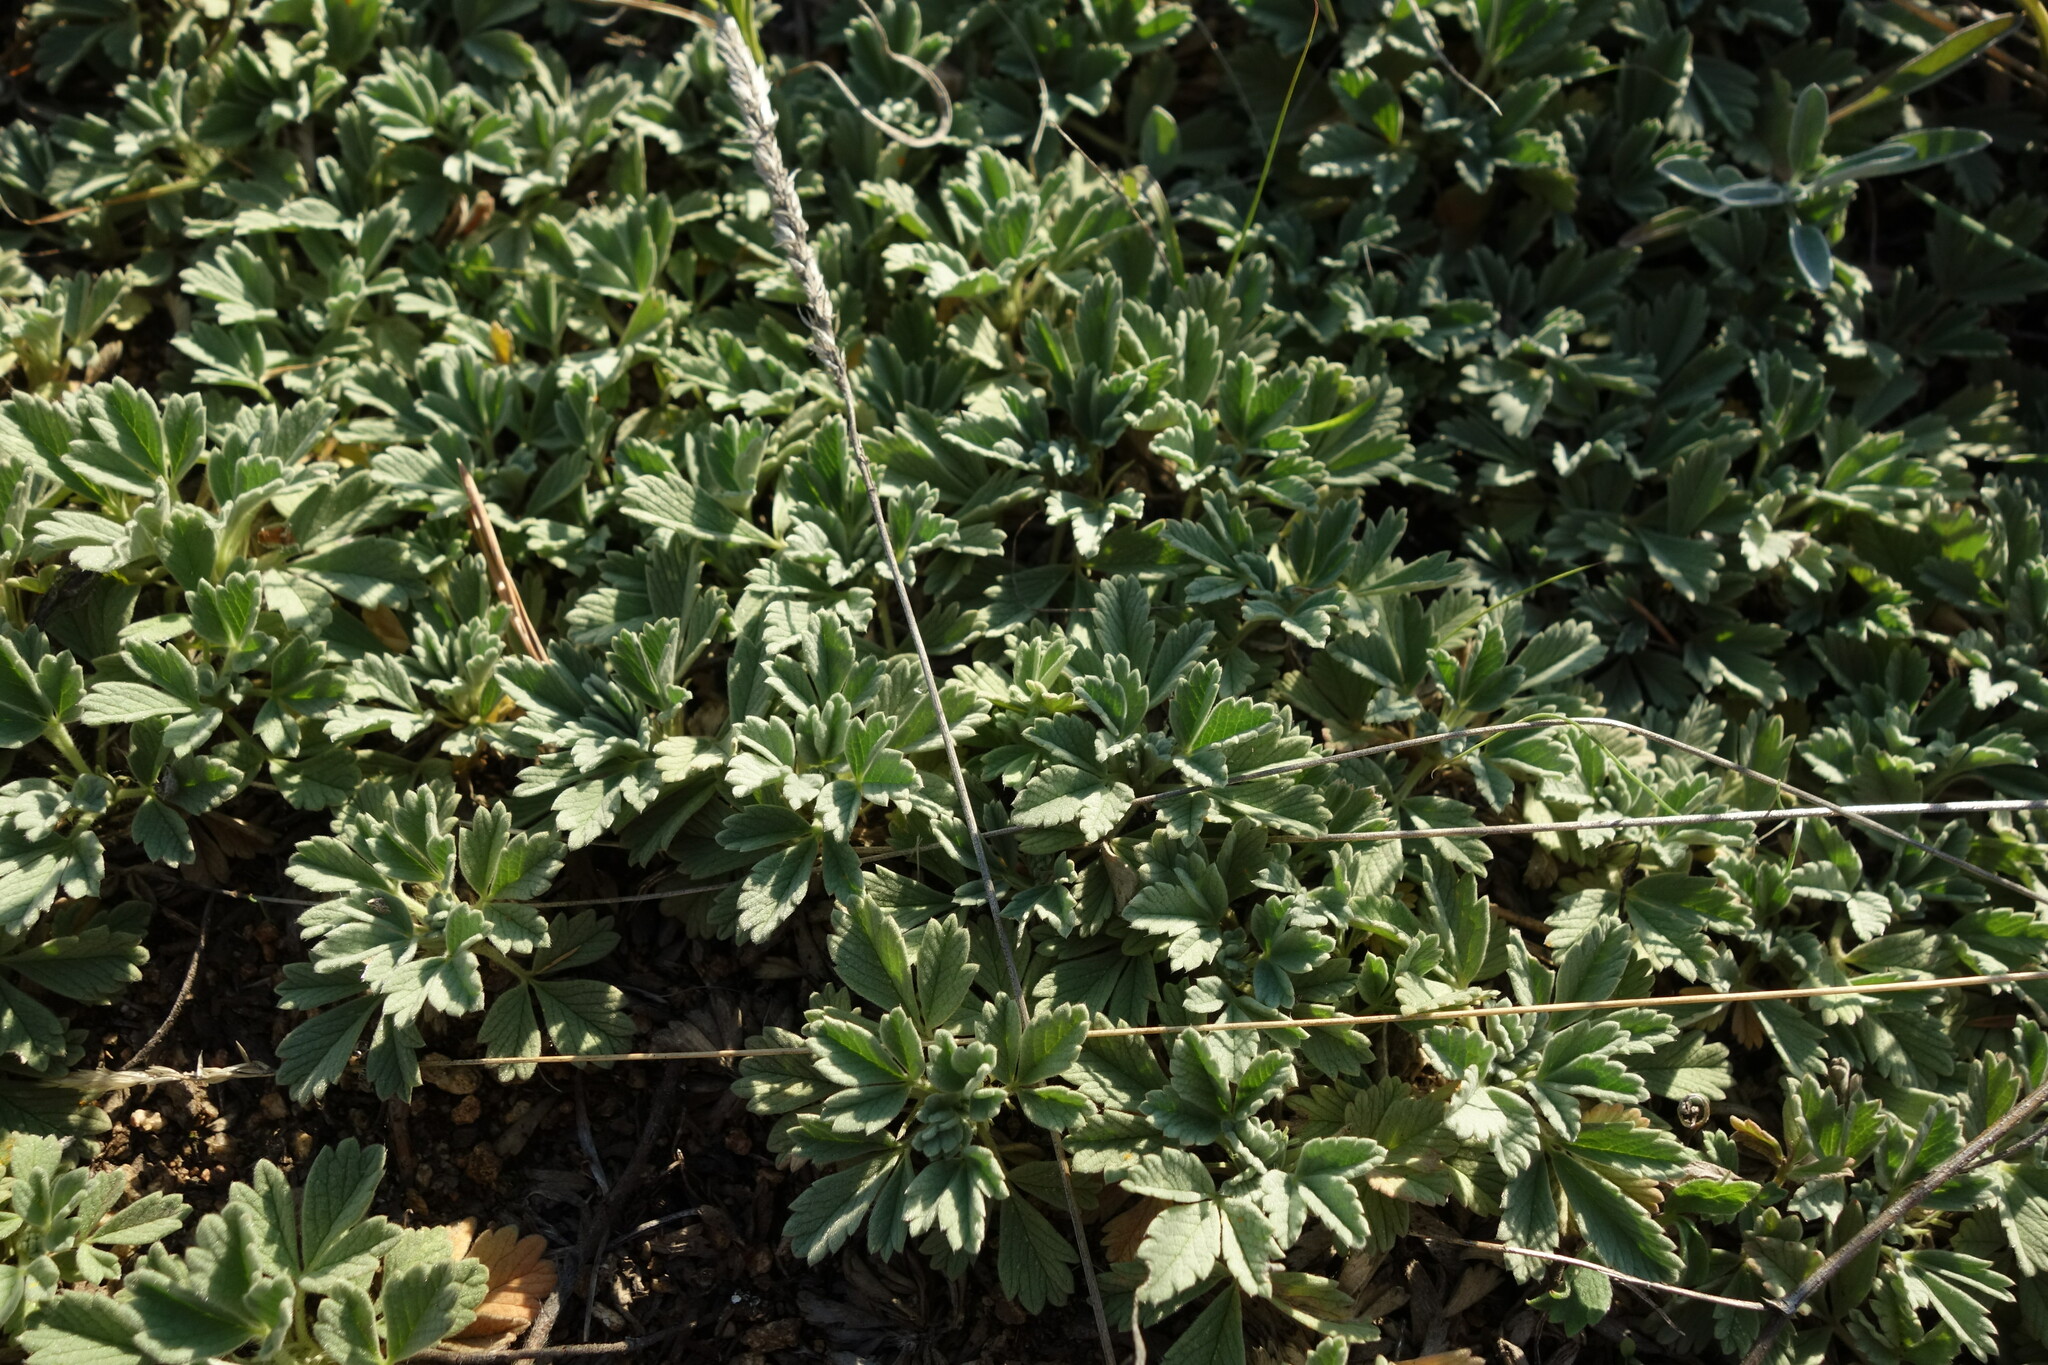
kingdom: Plantae
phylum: Tracheophyta
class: Magnoliopsida
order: Rosales
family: Rosaceae
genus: Potentilla
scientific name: Potentilla acaulis
